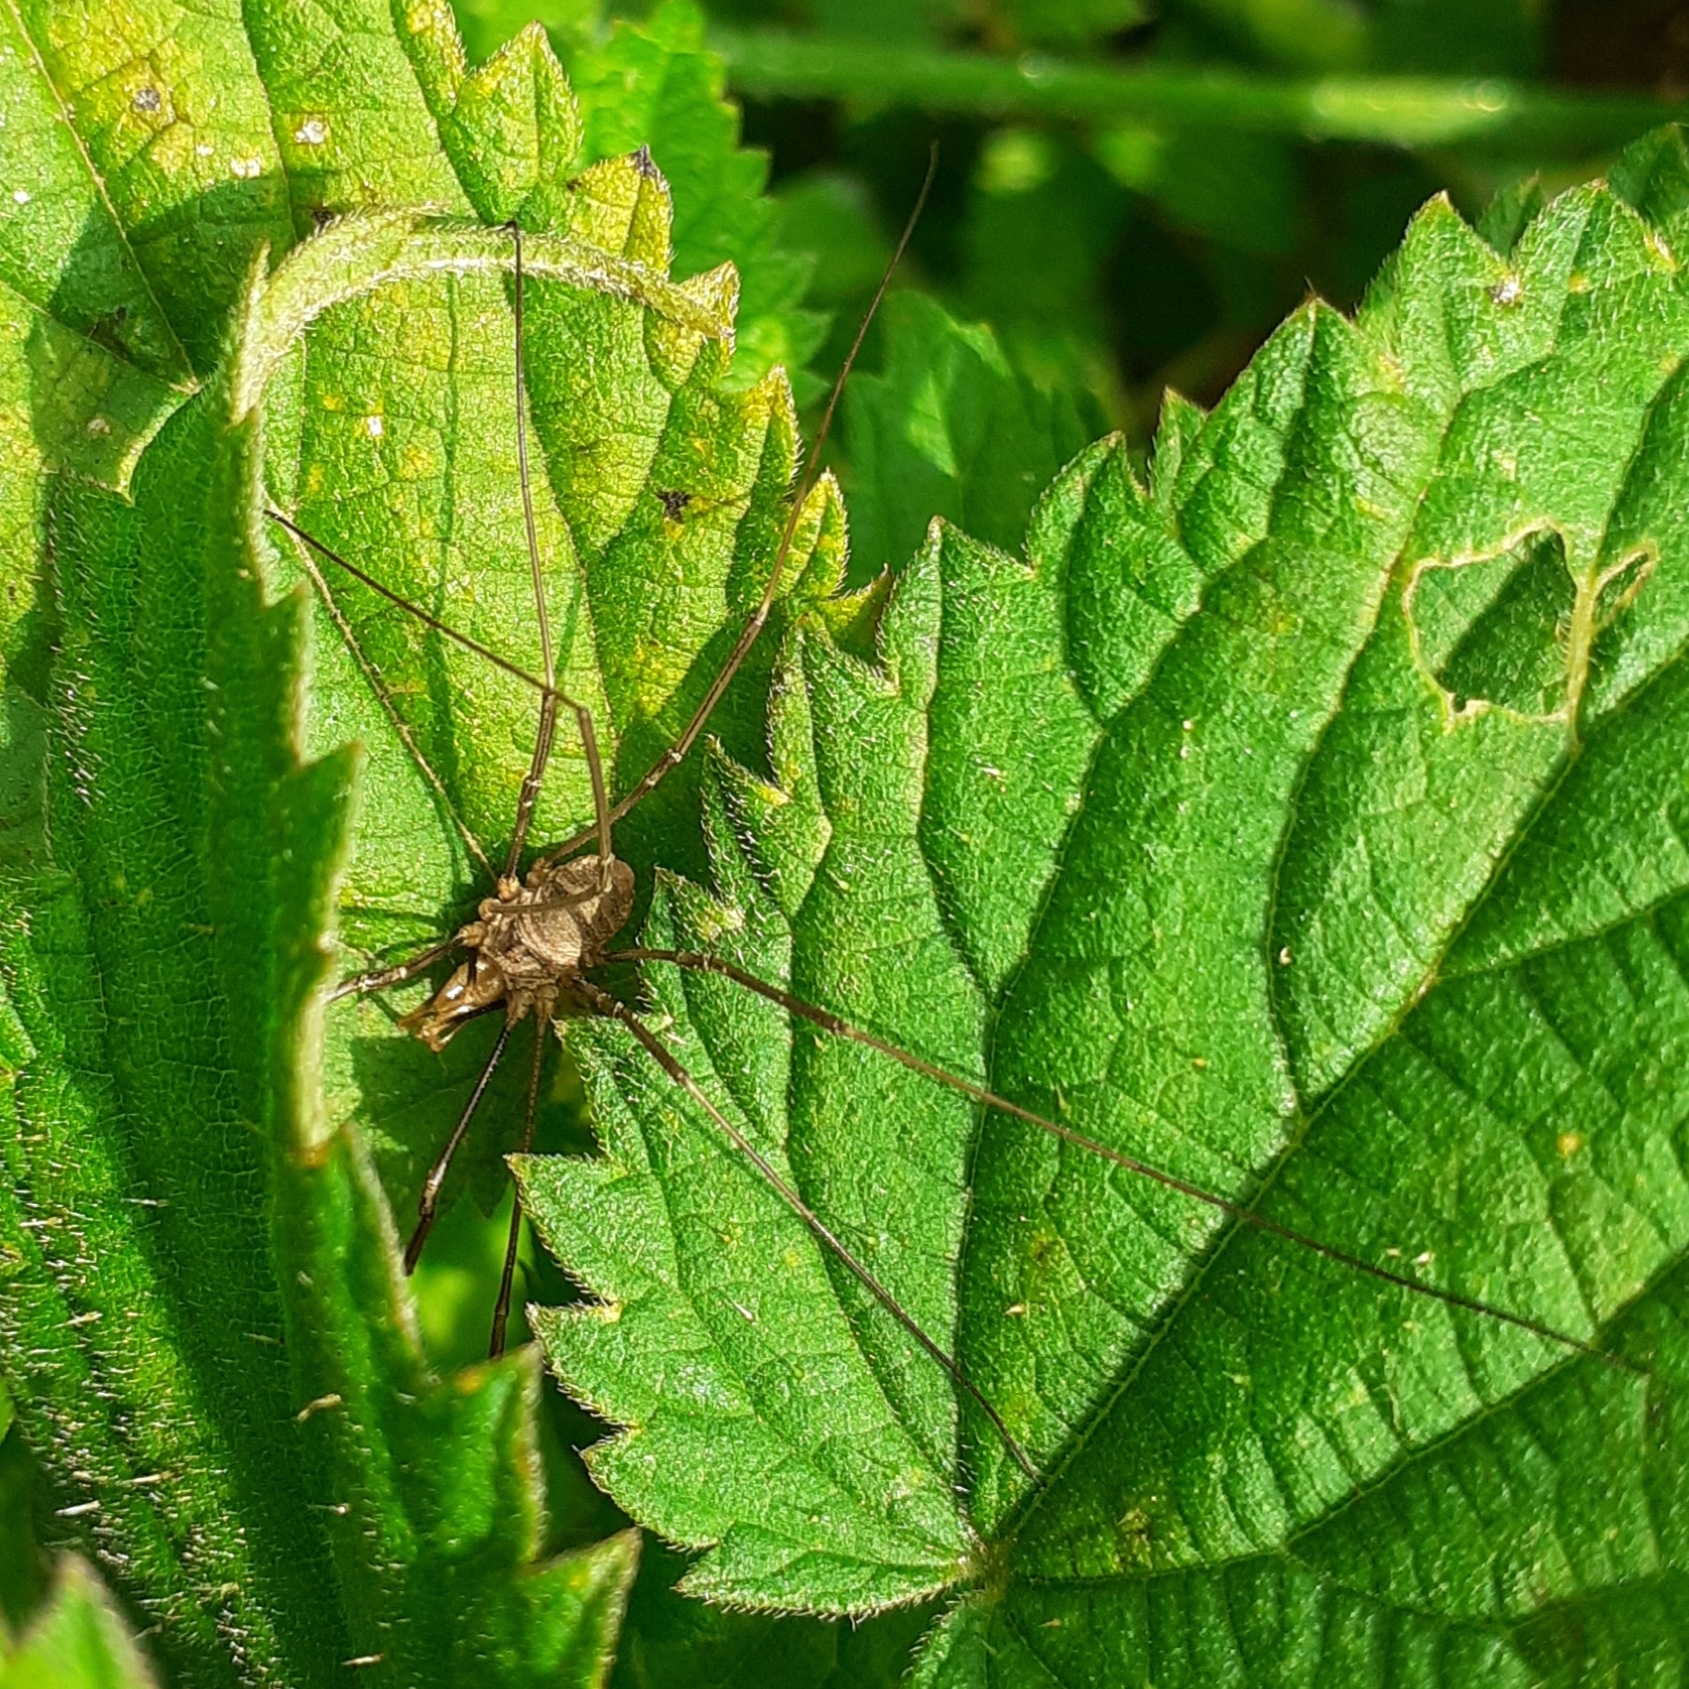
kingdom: Animalia
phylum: Arthropoda
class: Arachnida
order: Opiliones
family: Phalangiidae
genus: Phalangium
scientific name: Phalangium opilio
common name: Daddy longleg
